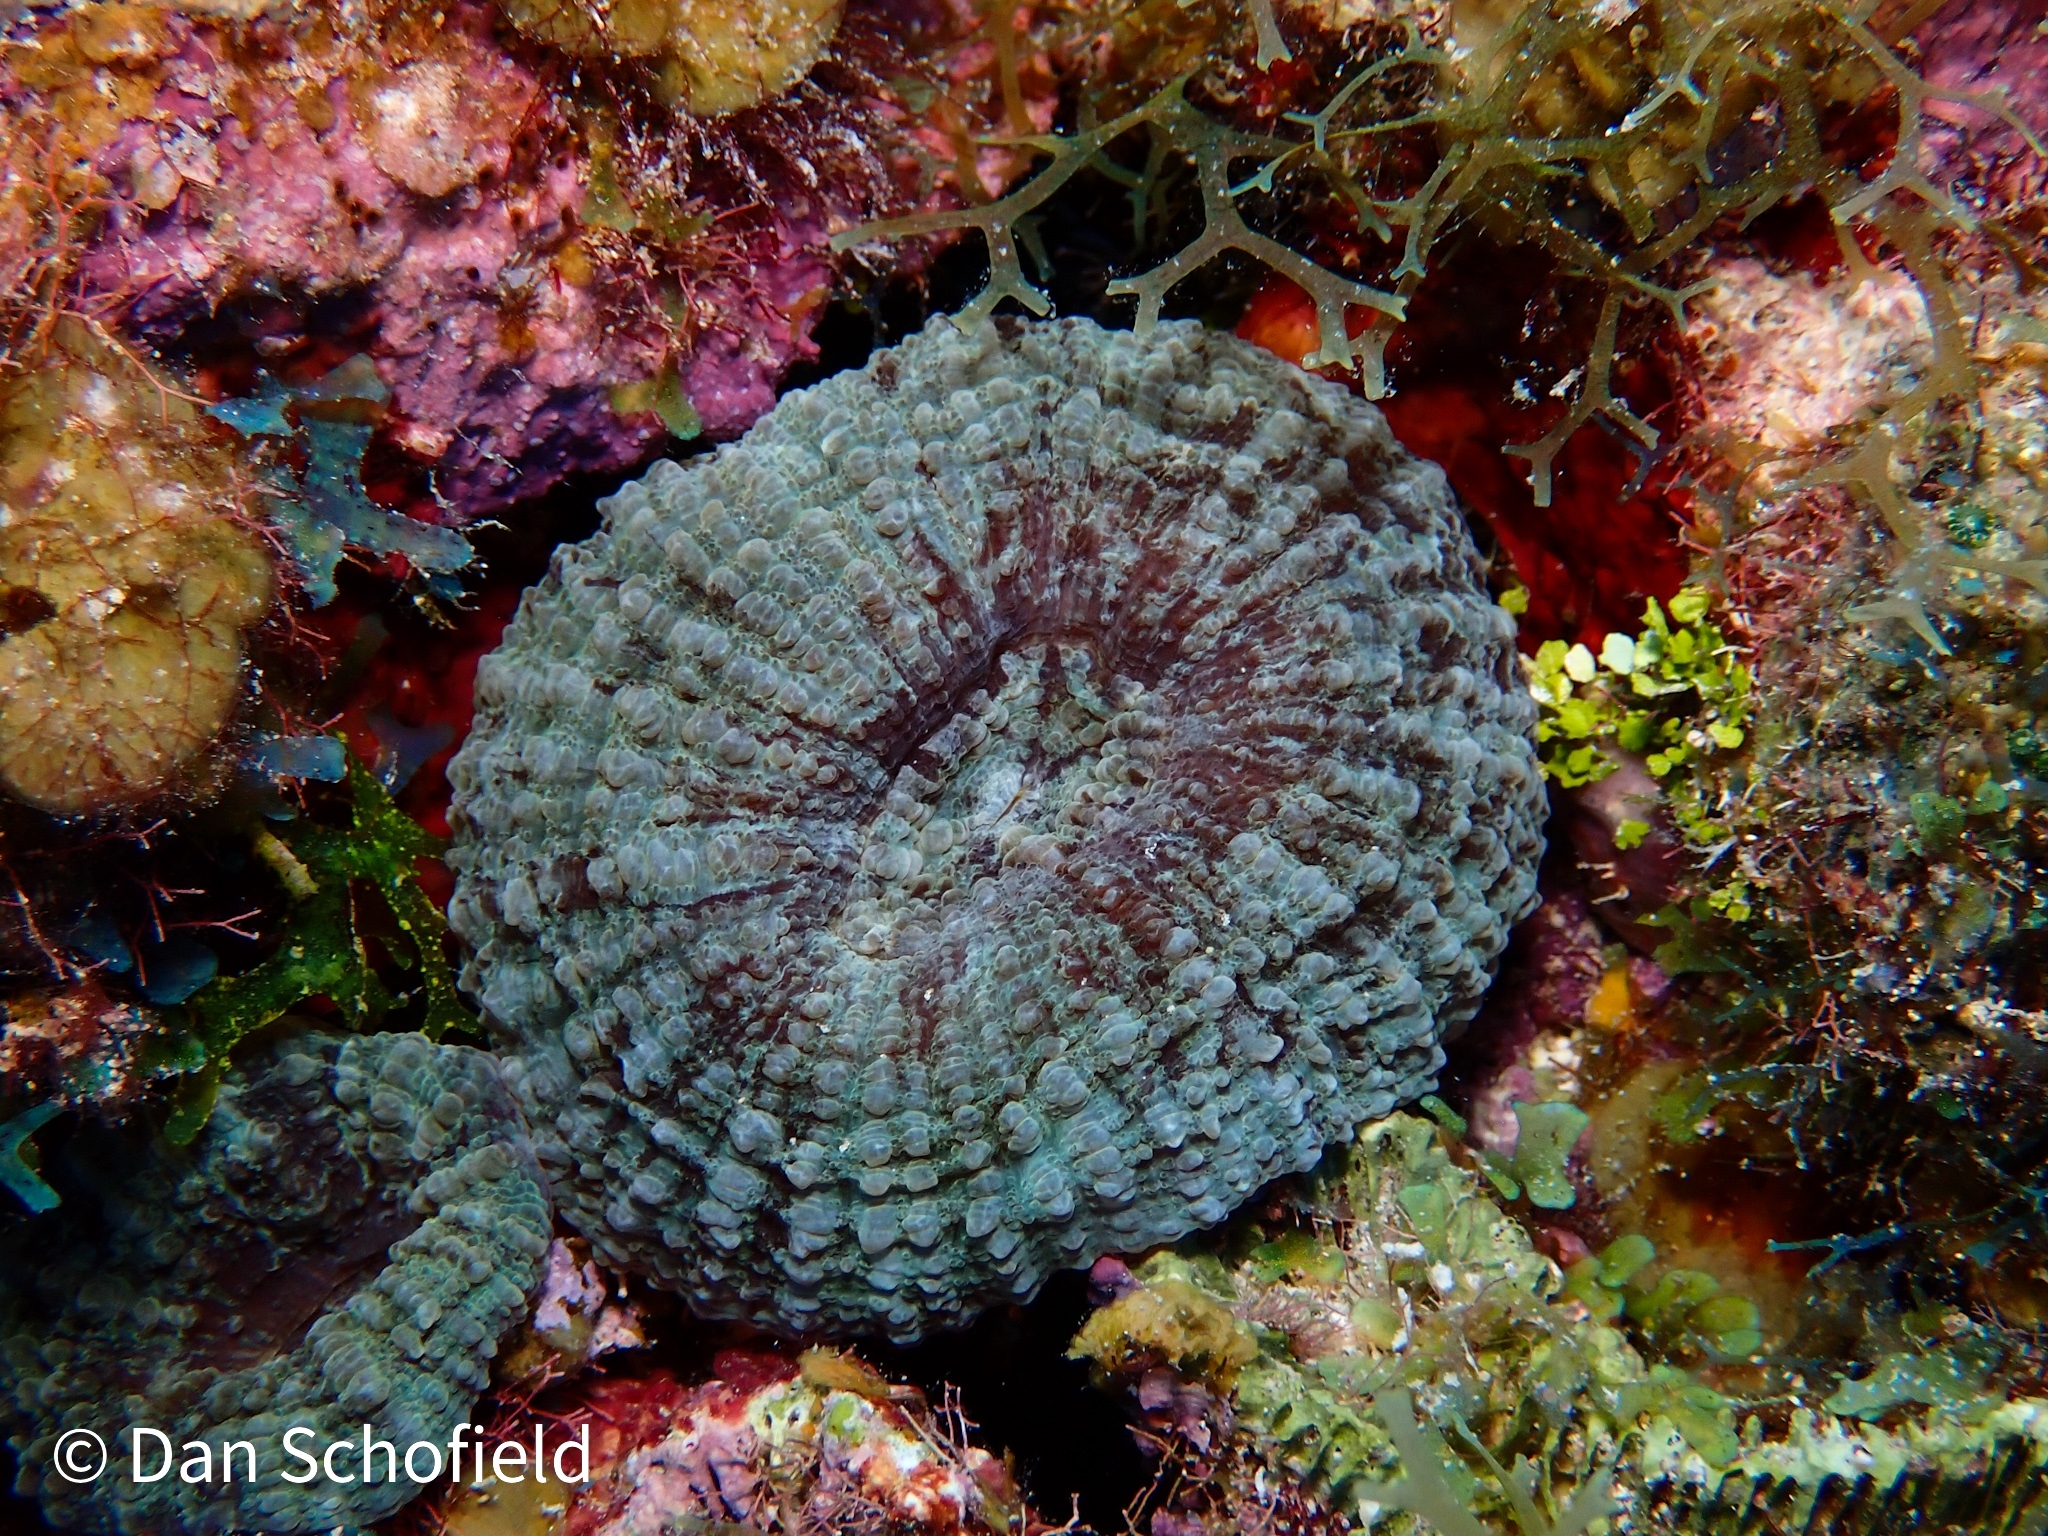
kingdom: Animalia
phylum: Cnidaria
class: Anthozoa
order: Scleractinia
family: Faviidae
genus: Scolymia
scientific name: Scolymia lacera
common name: Atlantic mushroom coral
